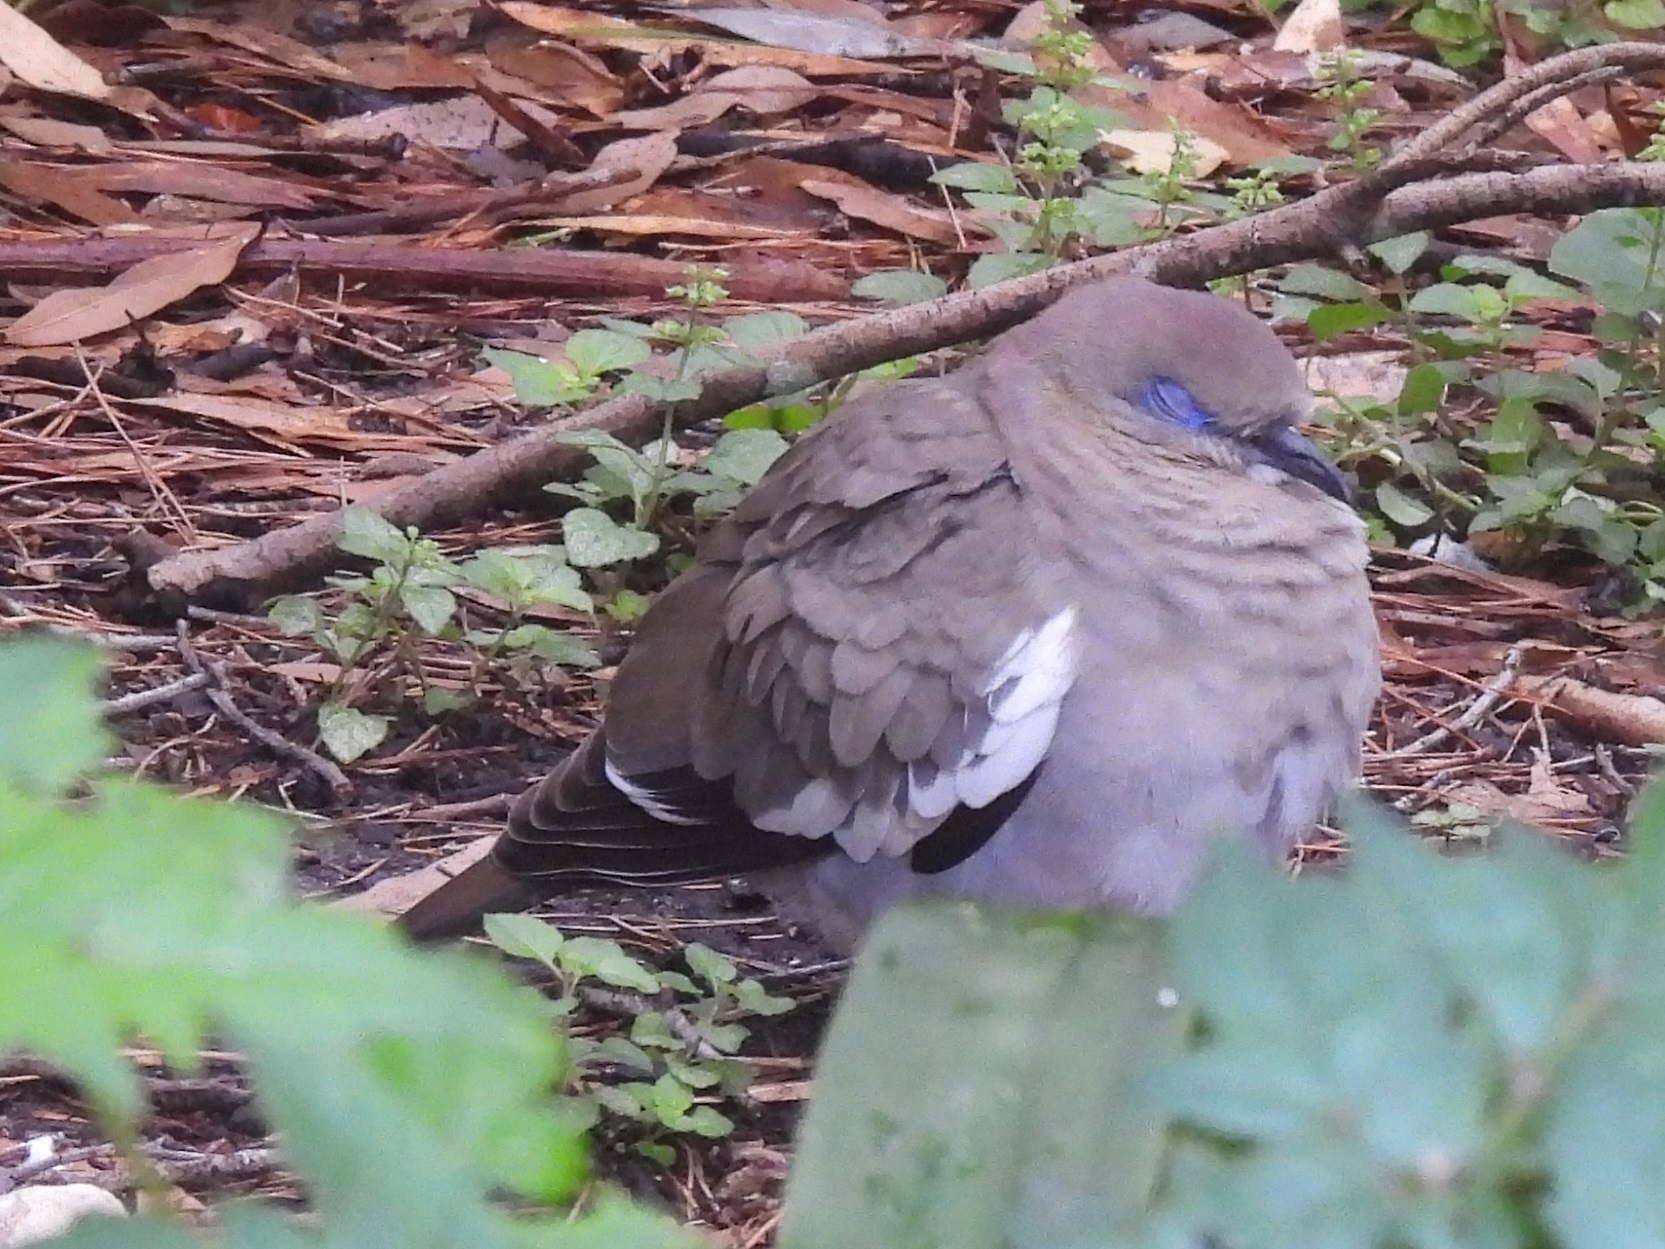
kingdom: Animalia
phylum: Chordata
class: Aves
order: Columbiformes
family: Columbidae
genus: Zenaida
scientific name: Zenaida asiatica
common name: White-winged dove
